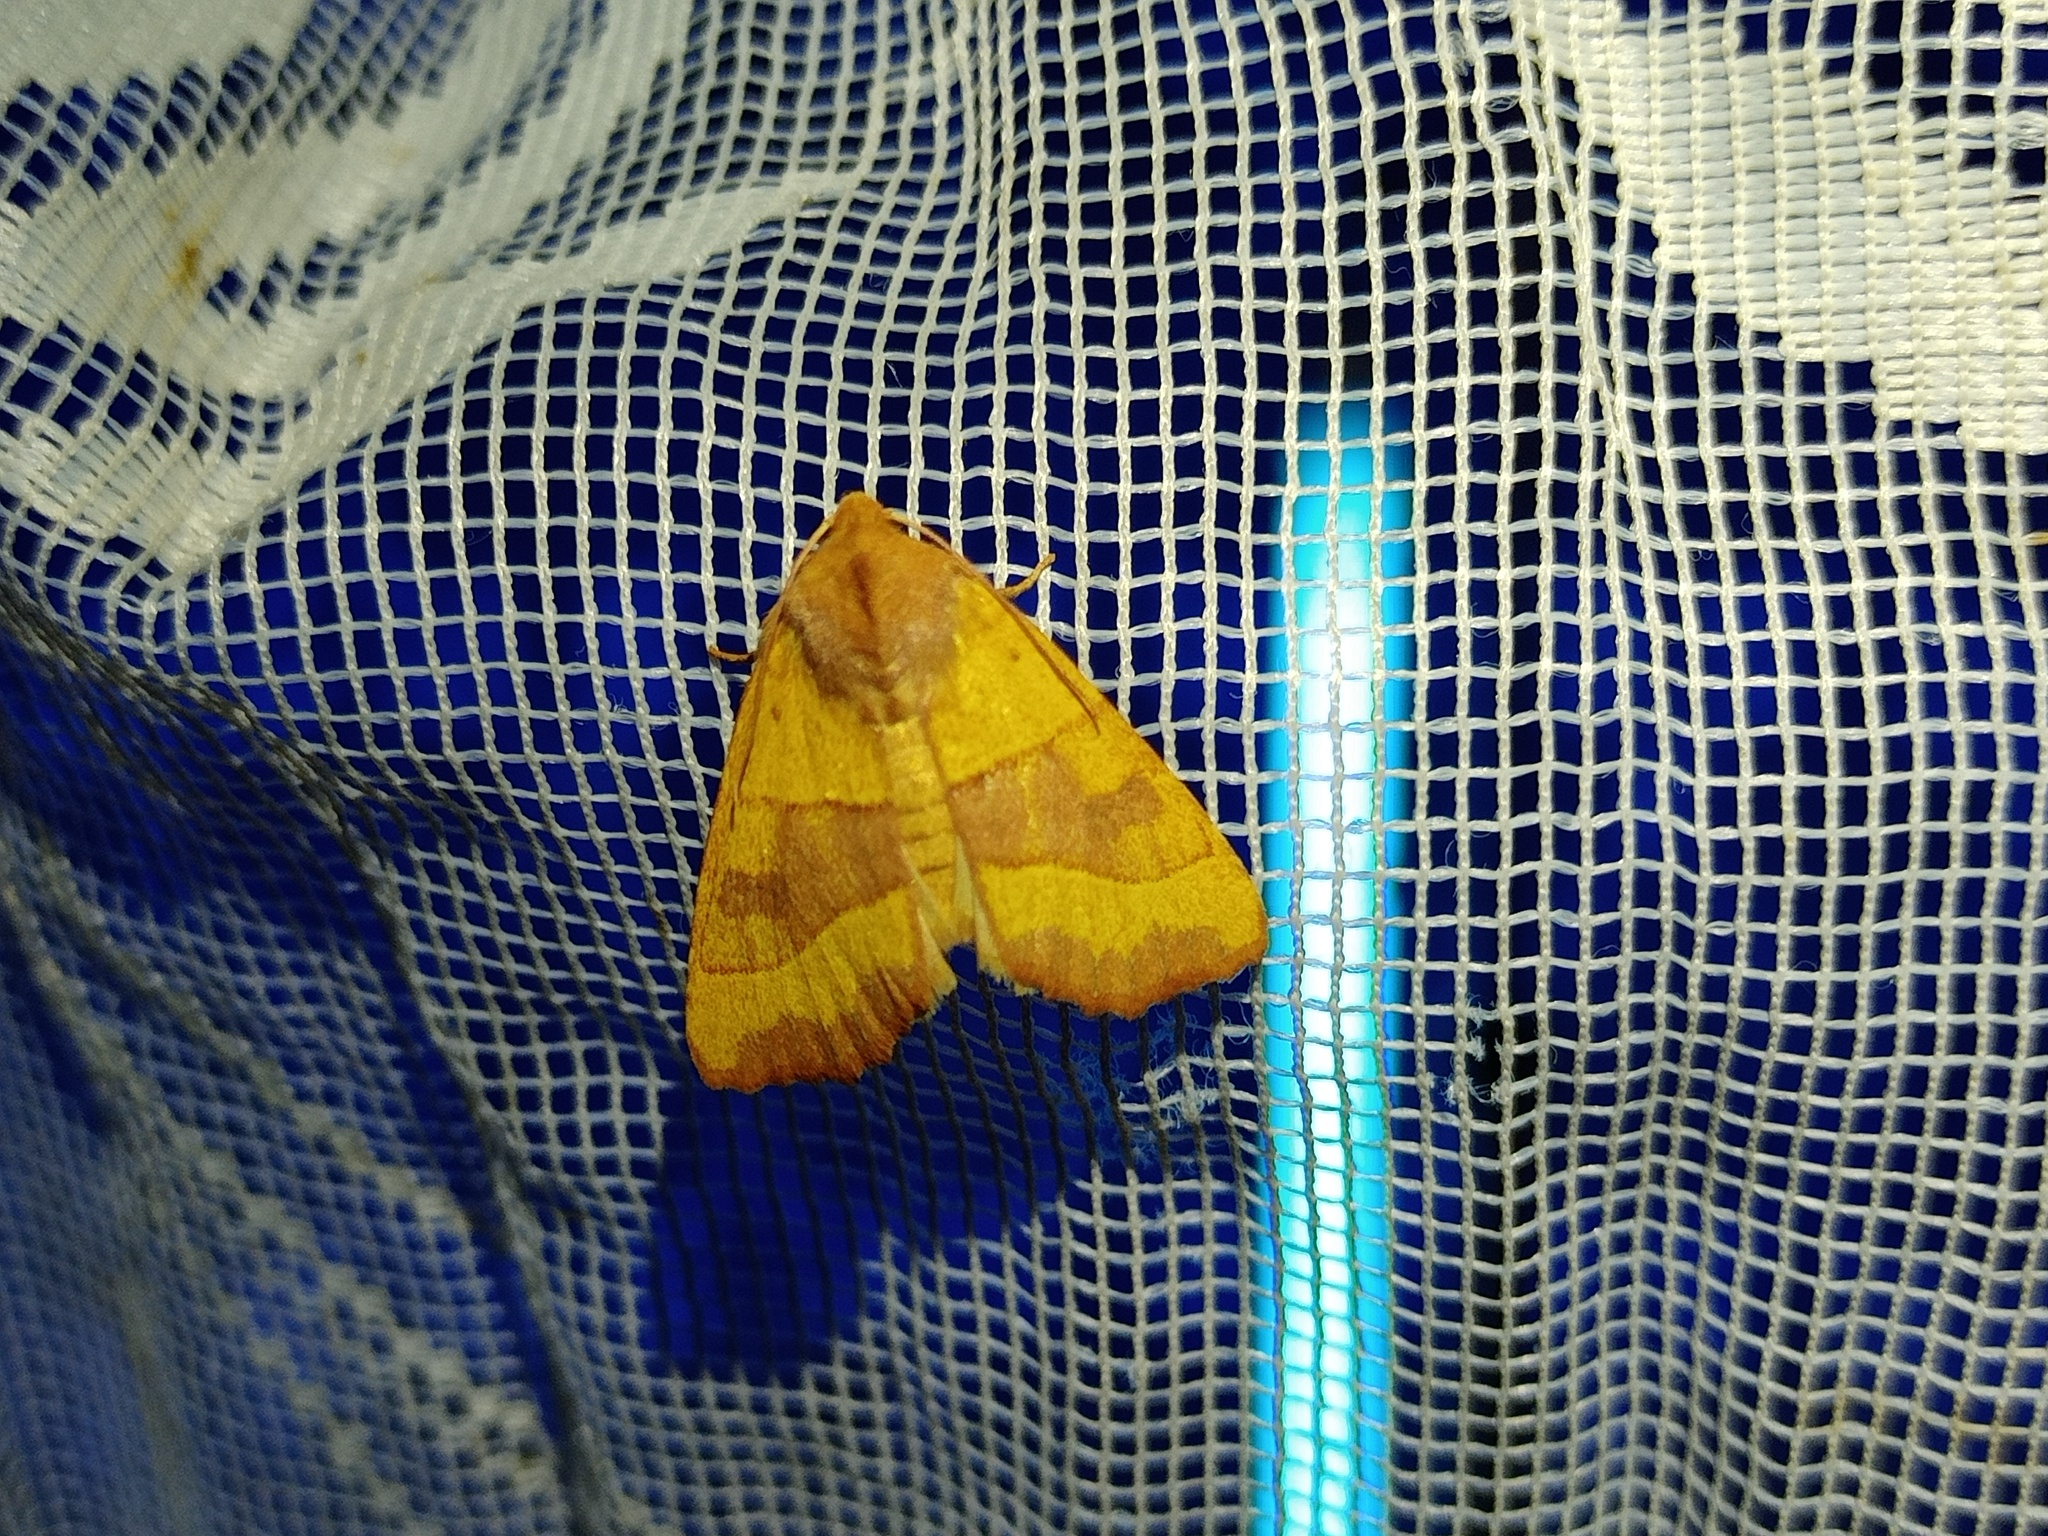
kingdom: Animalia
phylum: Arthropoda
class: Insecta
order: Lepidoptera
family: Noctuidae
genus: Atethmia
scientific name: Atethmia centrago
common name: Centre-barred sallow
